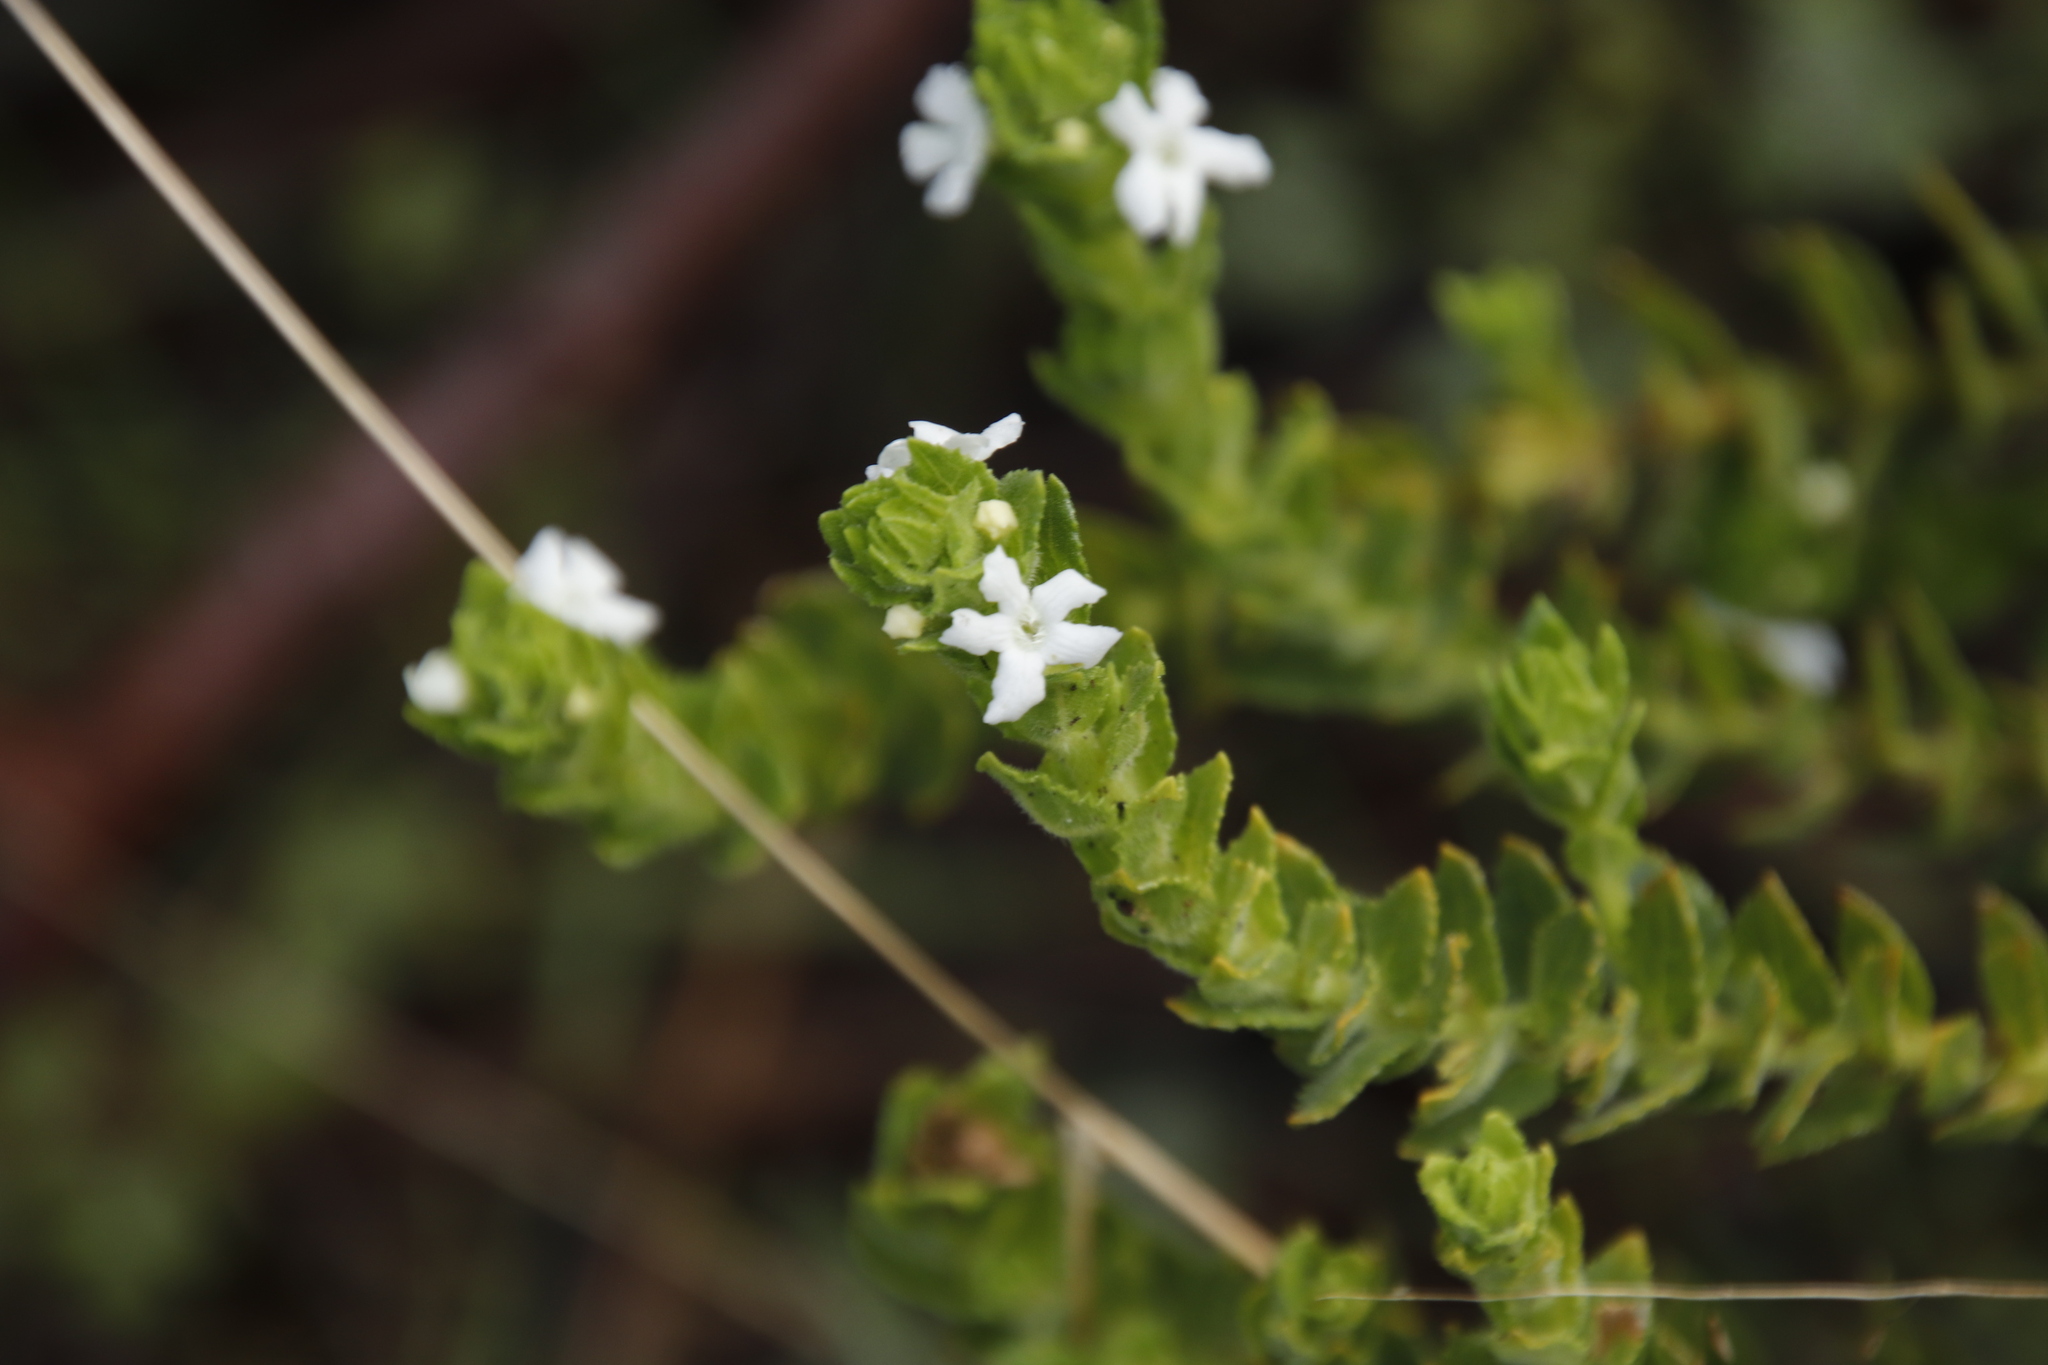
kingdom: Plantae
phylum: Tracheophyta
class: Magnoliopsida
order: Lamiales
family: Scrophulariaceae
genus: Oftia
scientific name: Oftia africana
